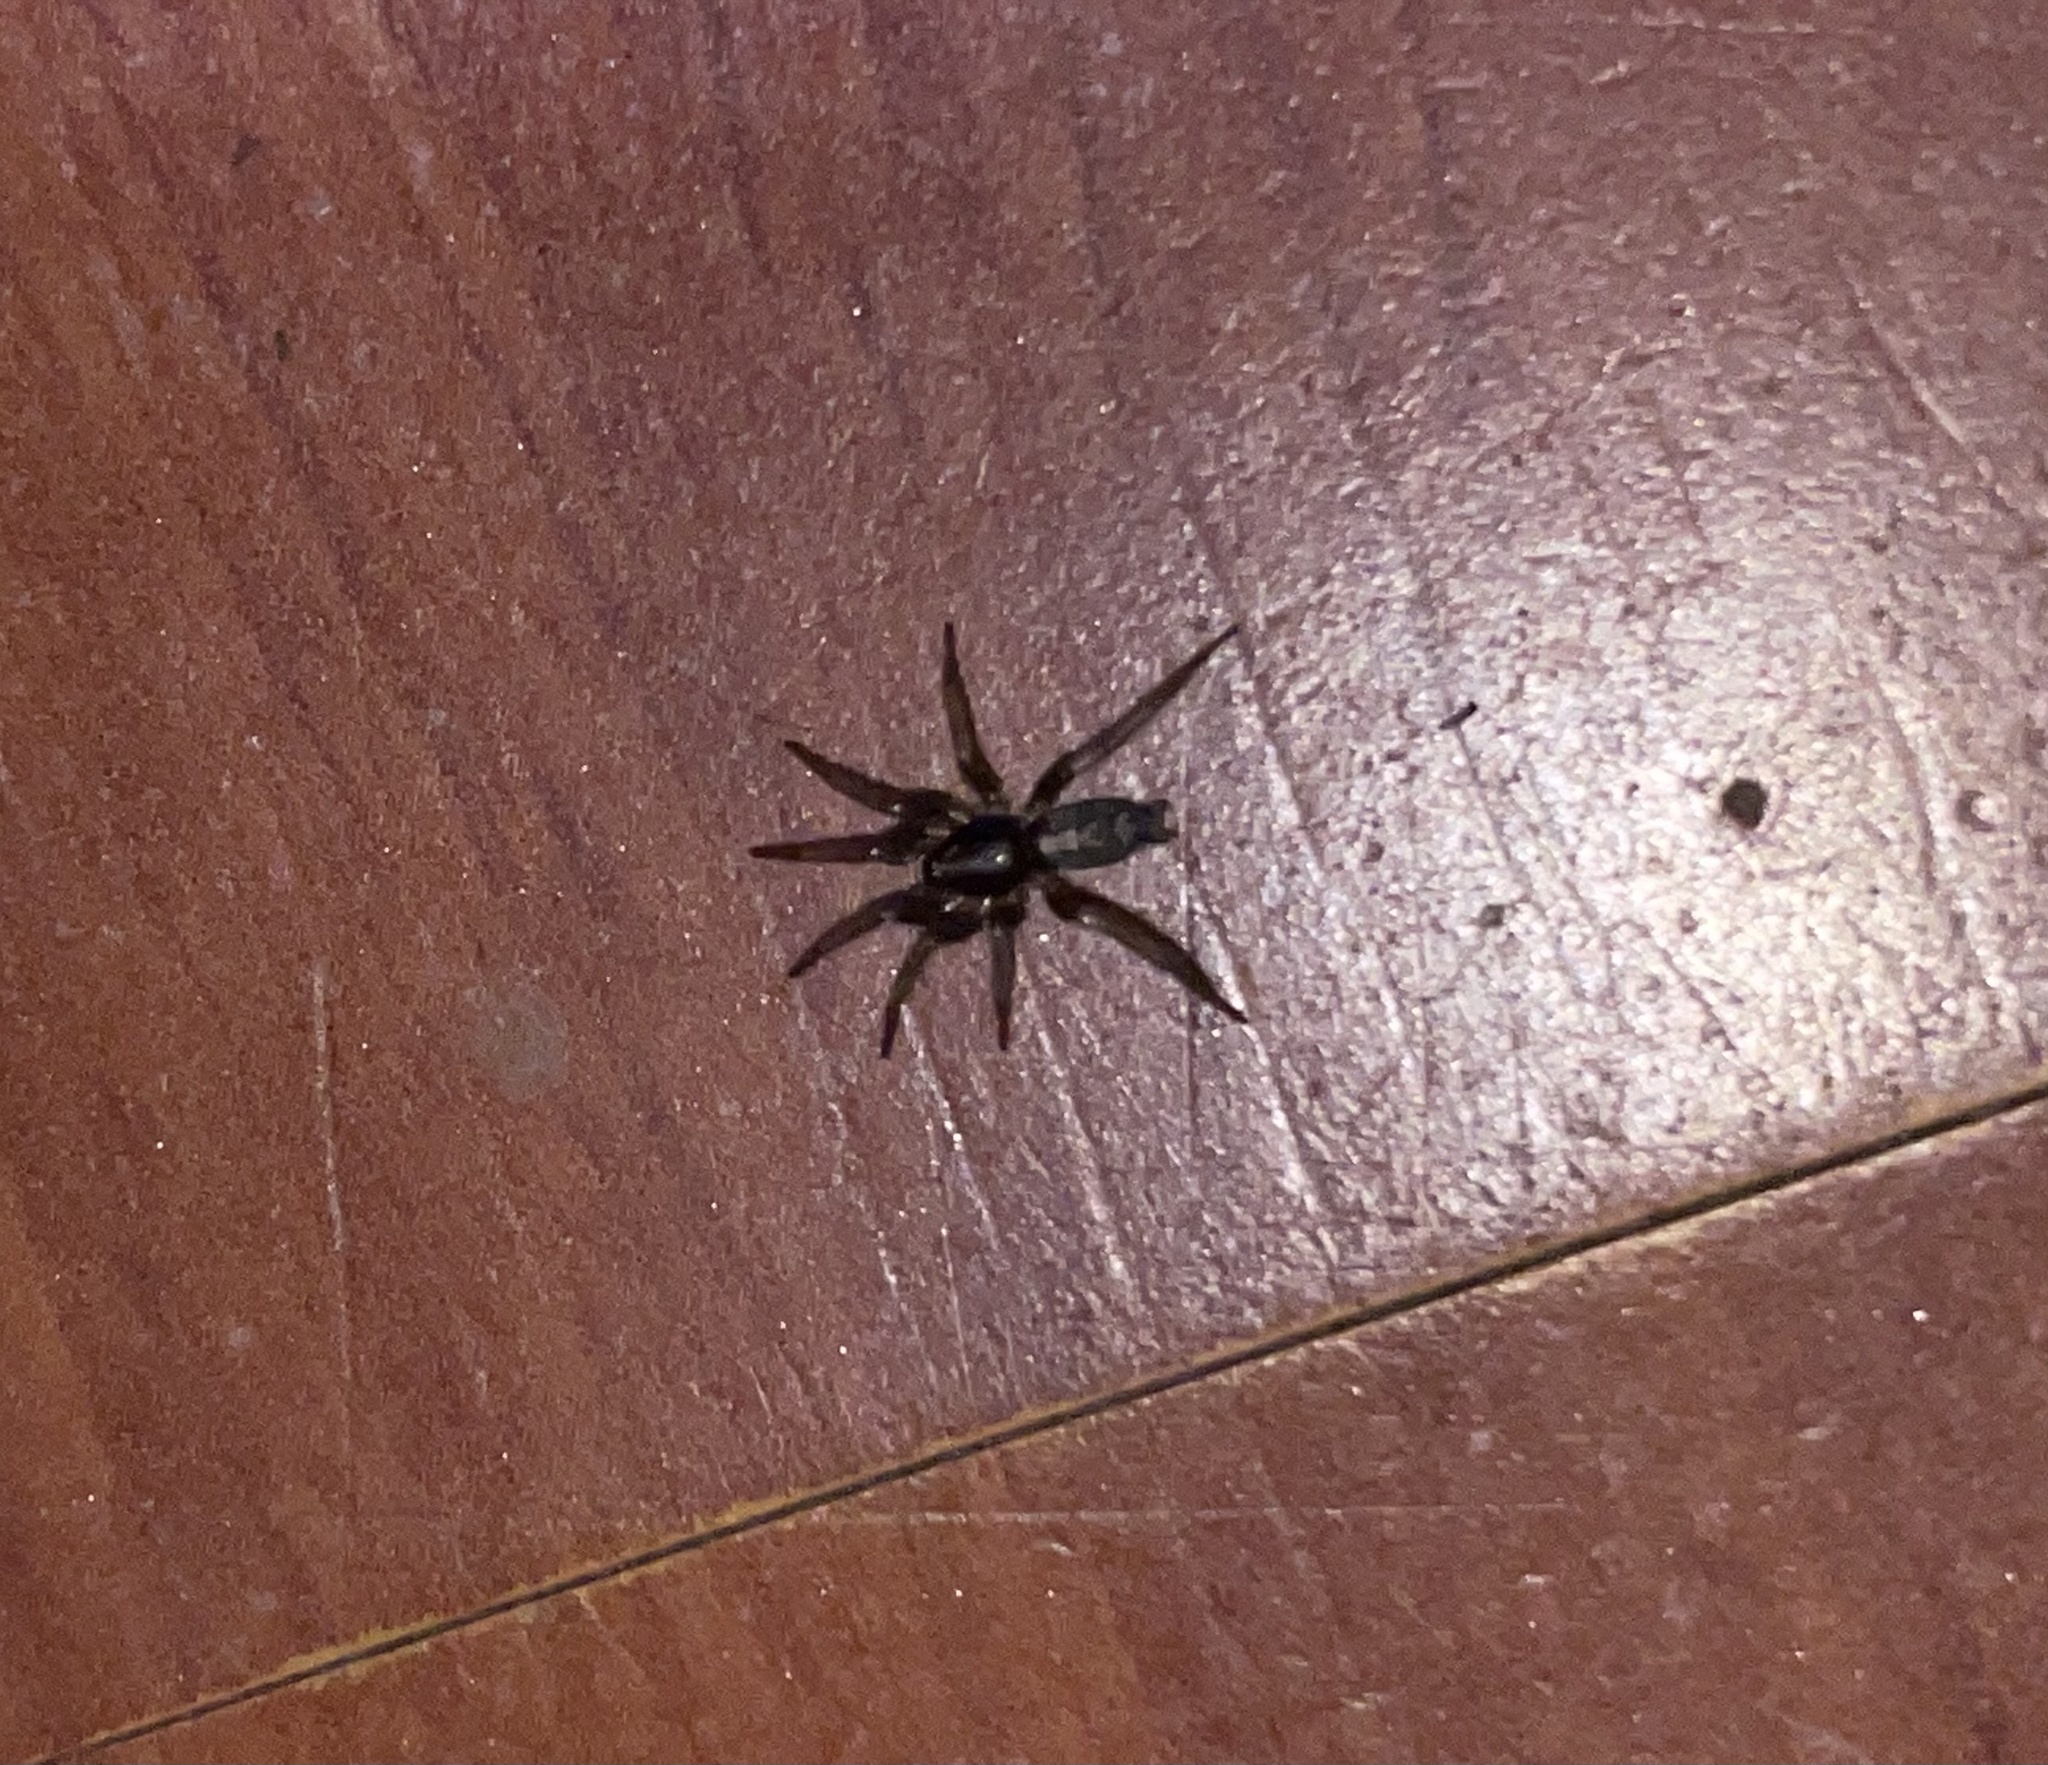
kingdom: Animalia
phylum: Arthropoda
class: Arachnida
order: Araneae
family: Gnaphosidae
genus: Herpyllus
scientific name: Herpyllus ecclesiasticus
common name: Eastern parson spider
